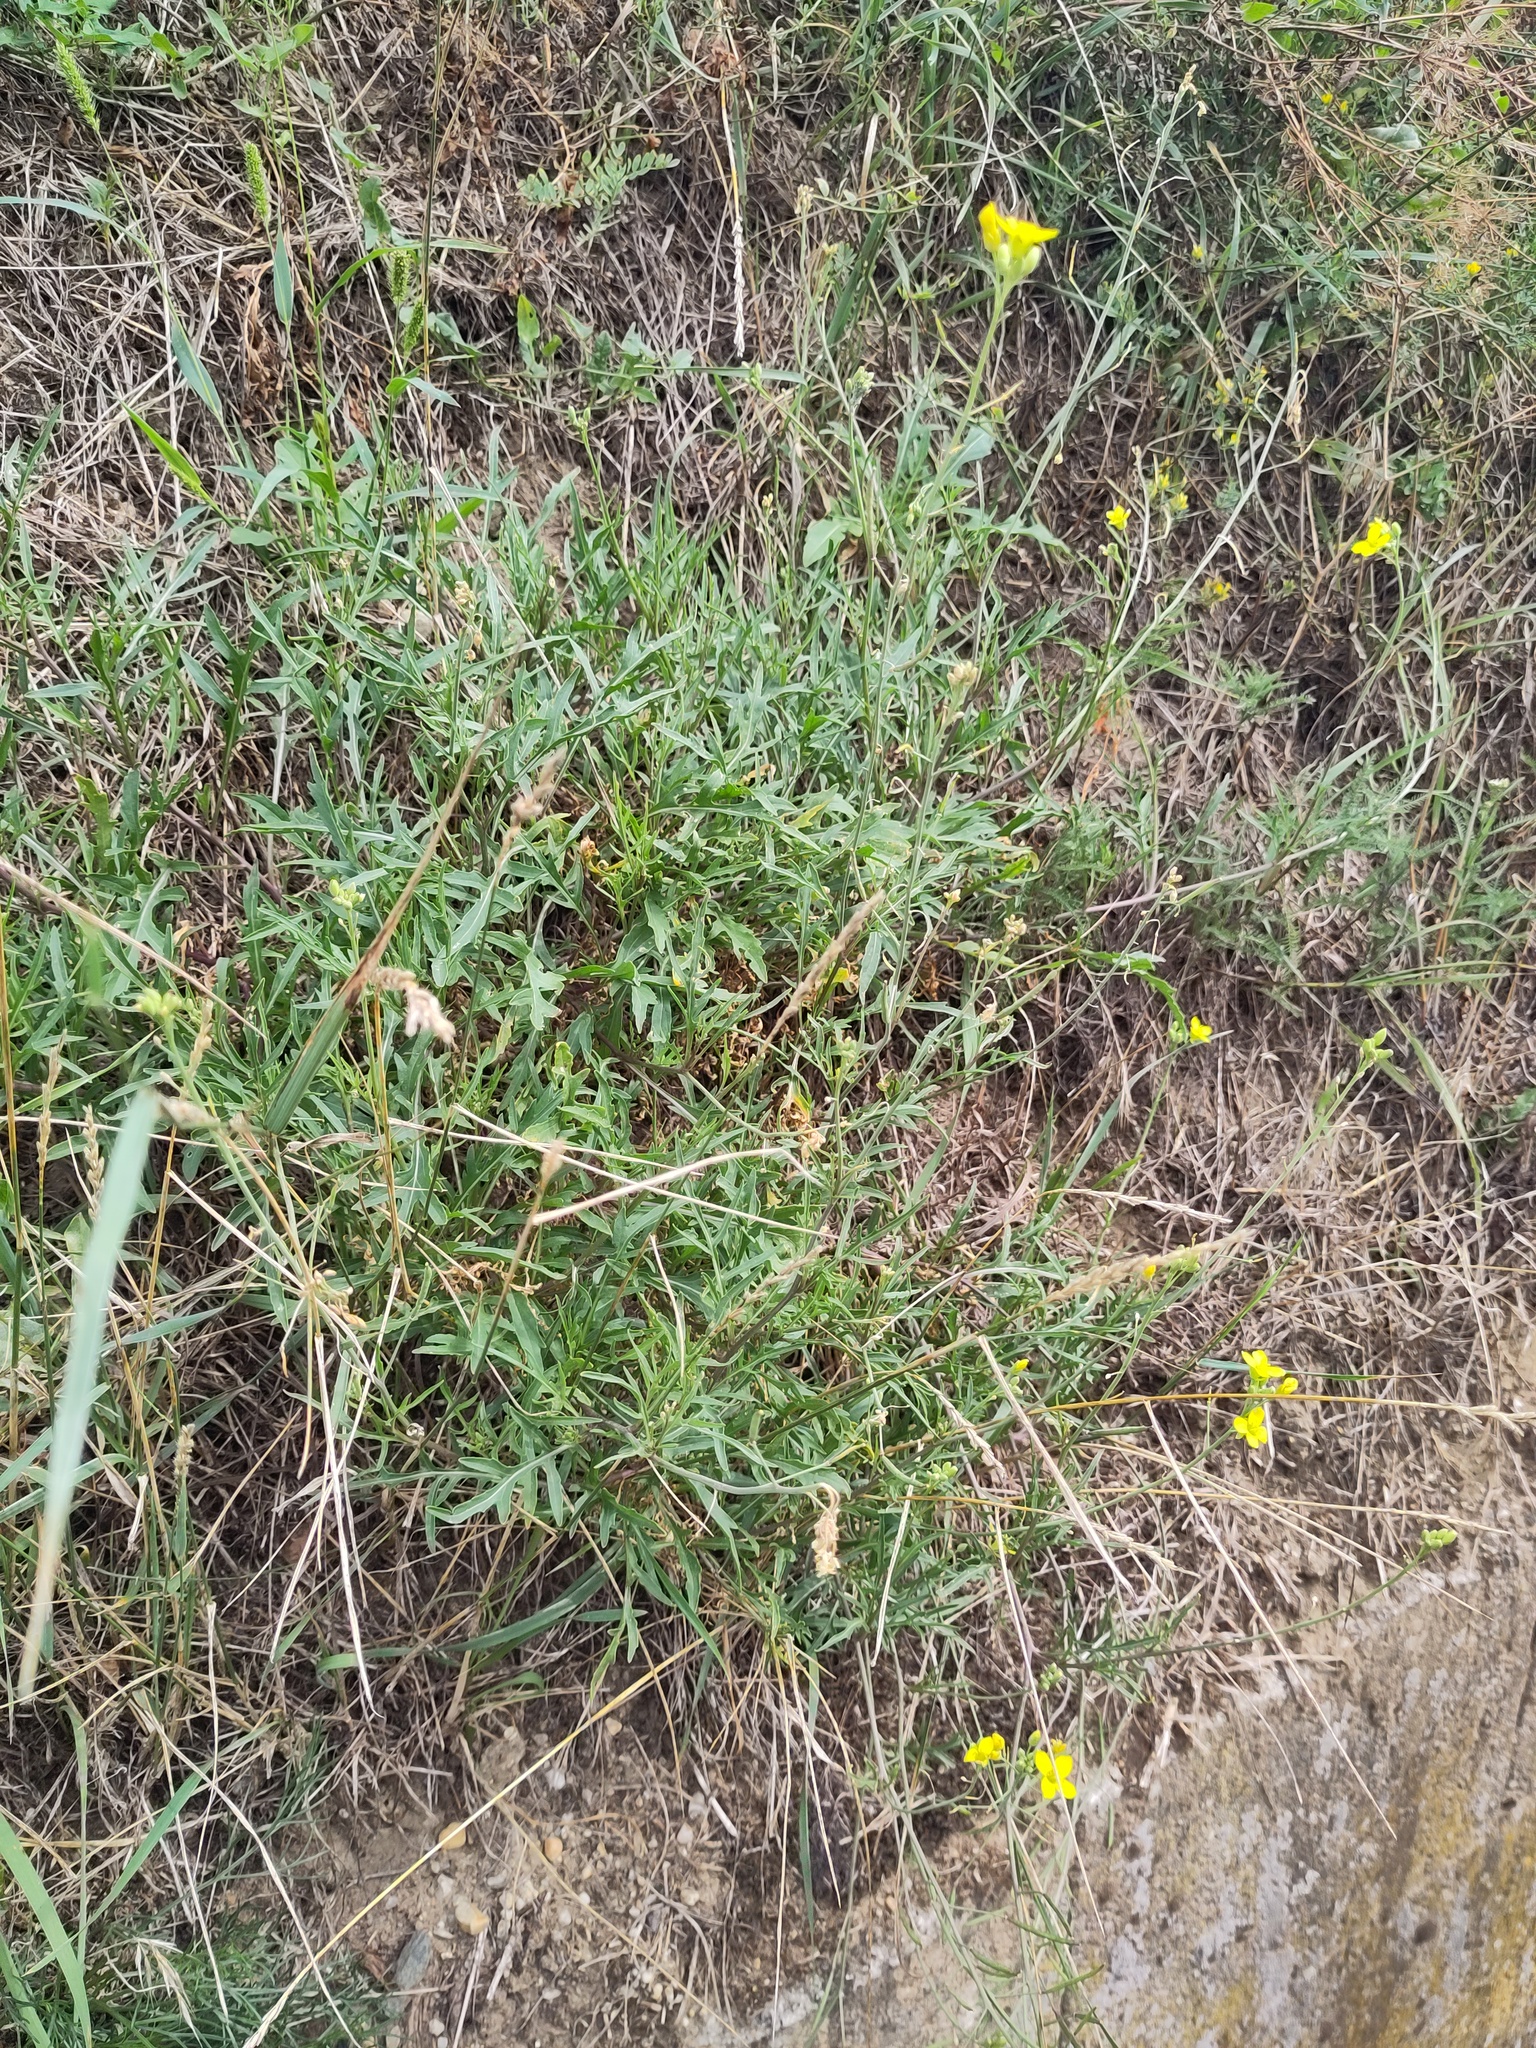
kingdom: Plantae
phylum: Tracheophyta
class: Magnoliopsida
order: Brassicales
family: Brassicaceae
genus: Diplotaxis
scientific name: Diplotaxis tenuifolia
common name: Perennial wall-rocket
